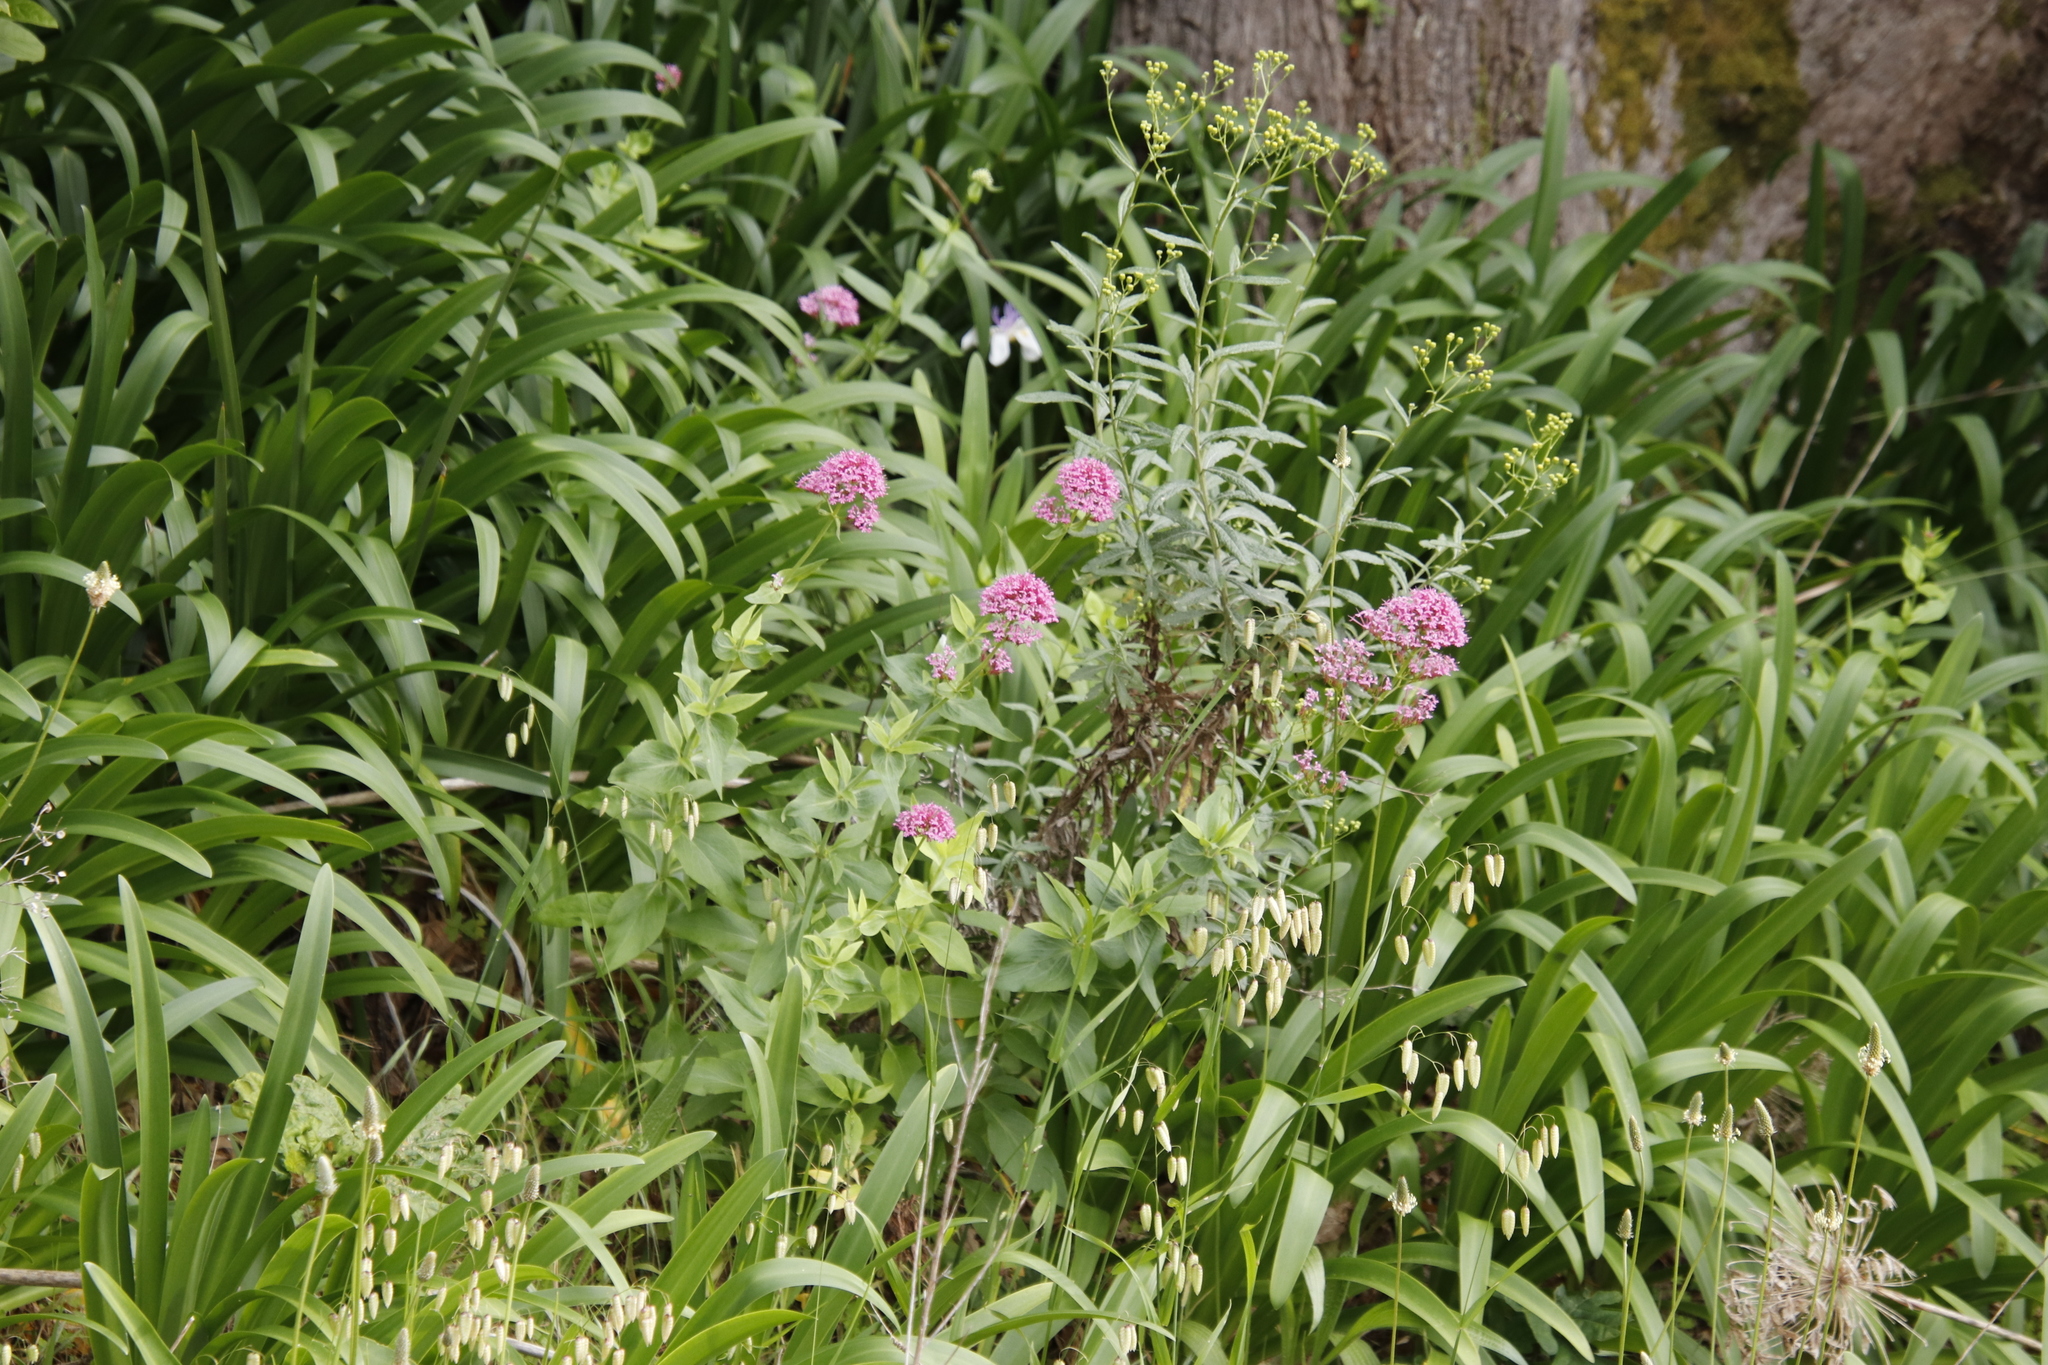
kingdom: Plantae
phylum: Tracheophyta
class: Magnoliopsida
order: Dipsacales
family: Caprifoliaceae
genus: Centranthus
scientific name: Centranthus ruber
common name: Red valerian
